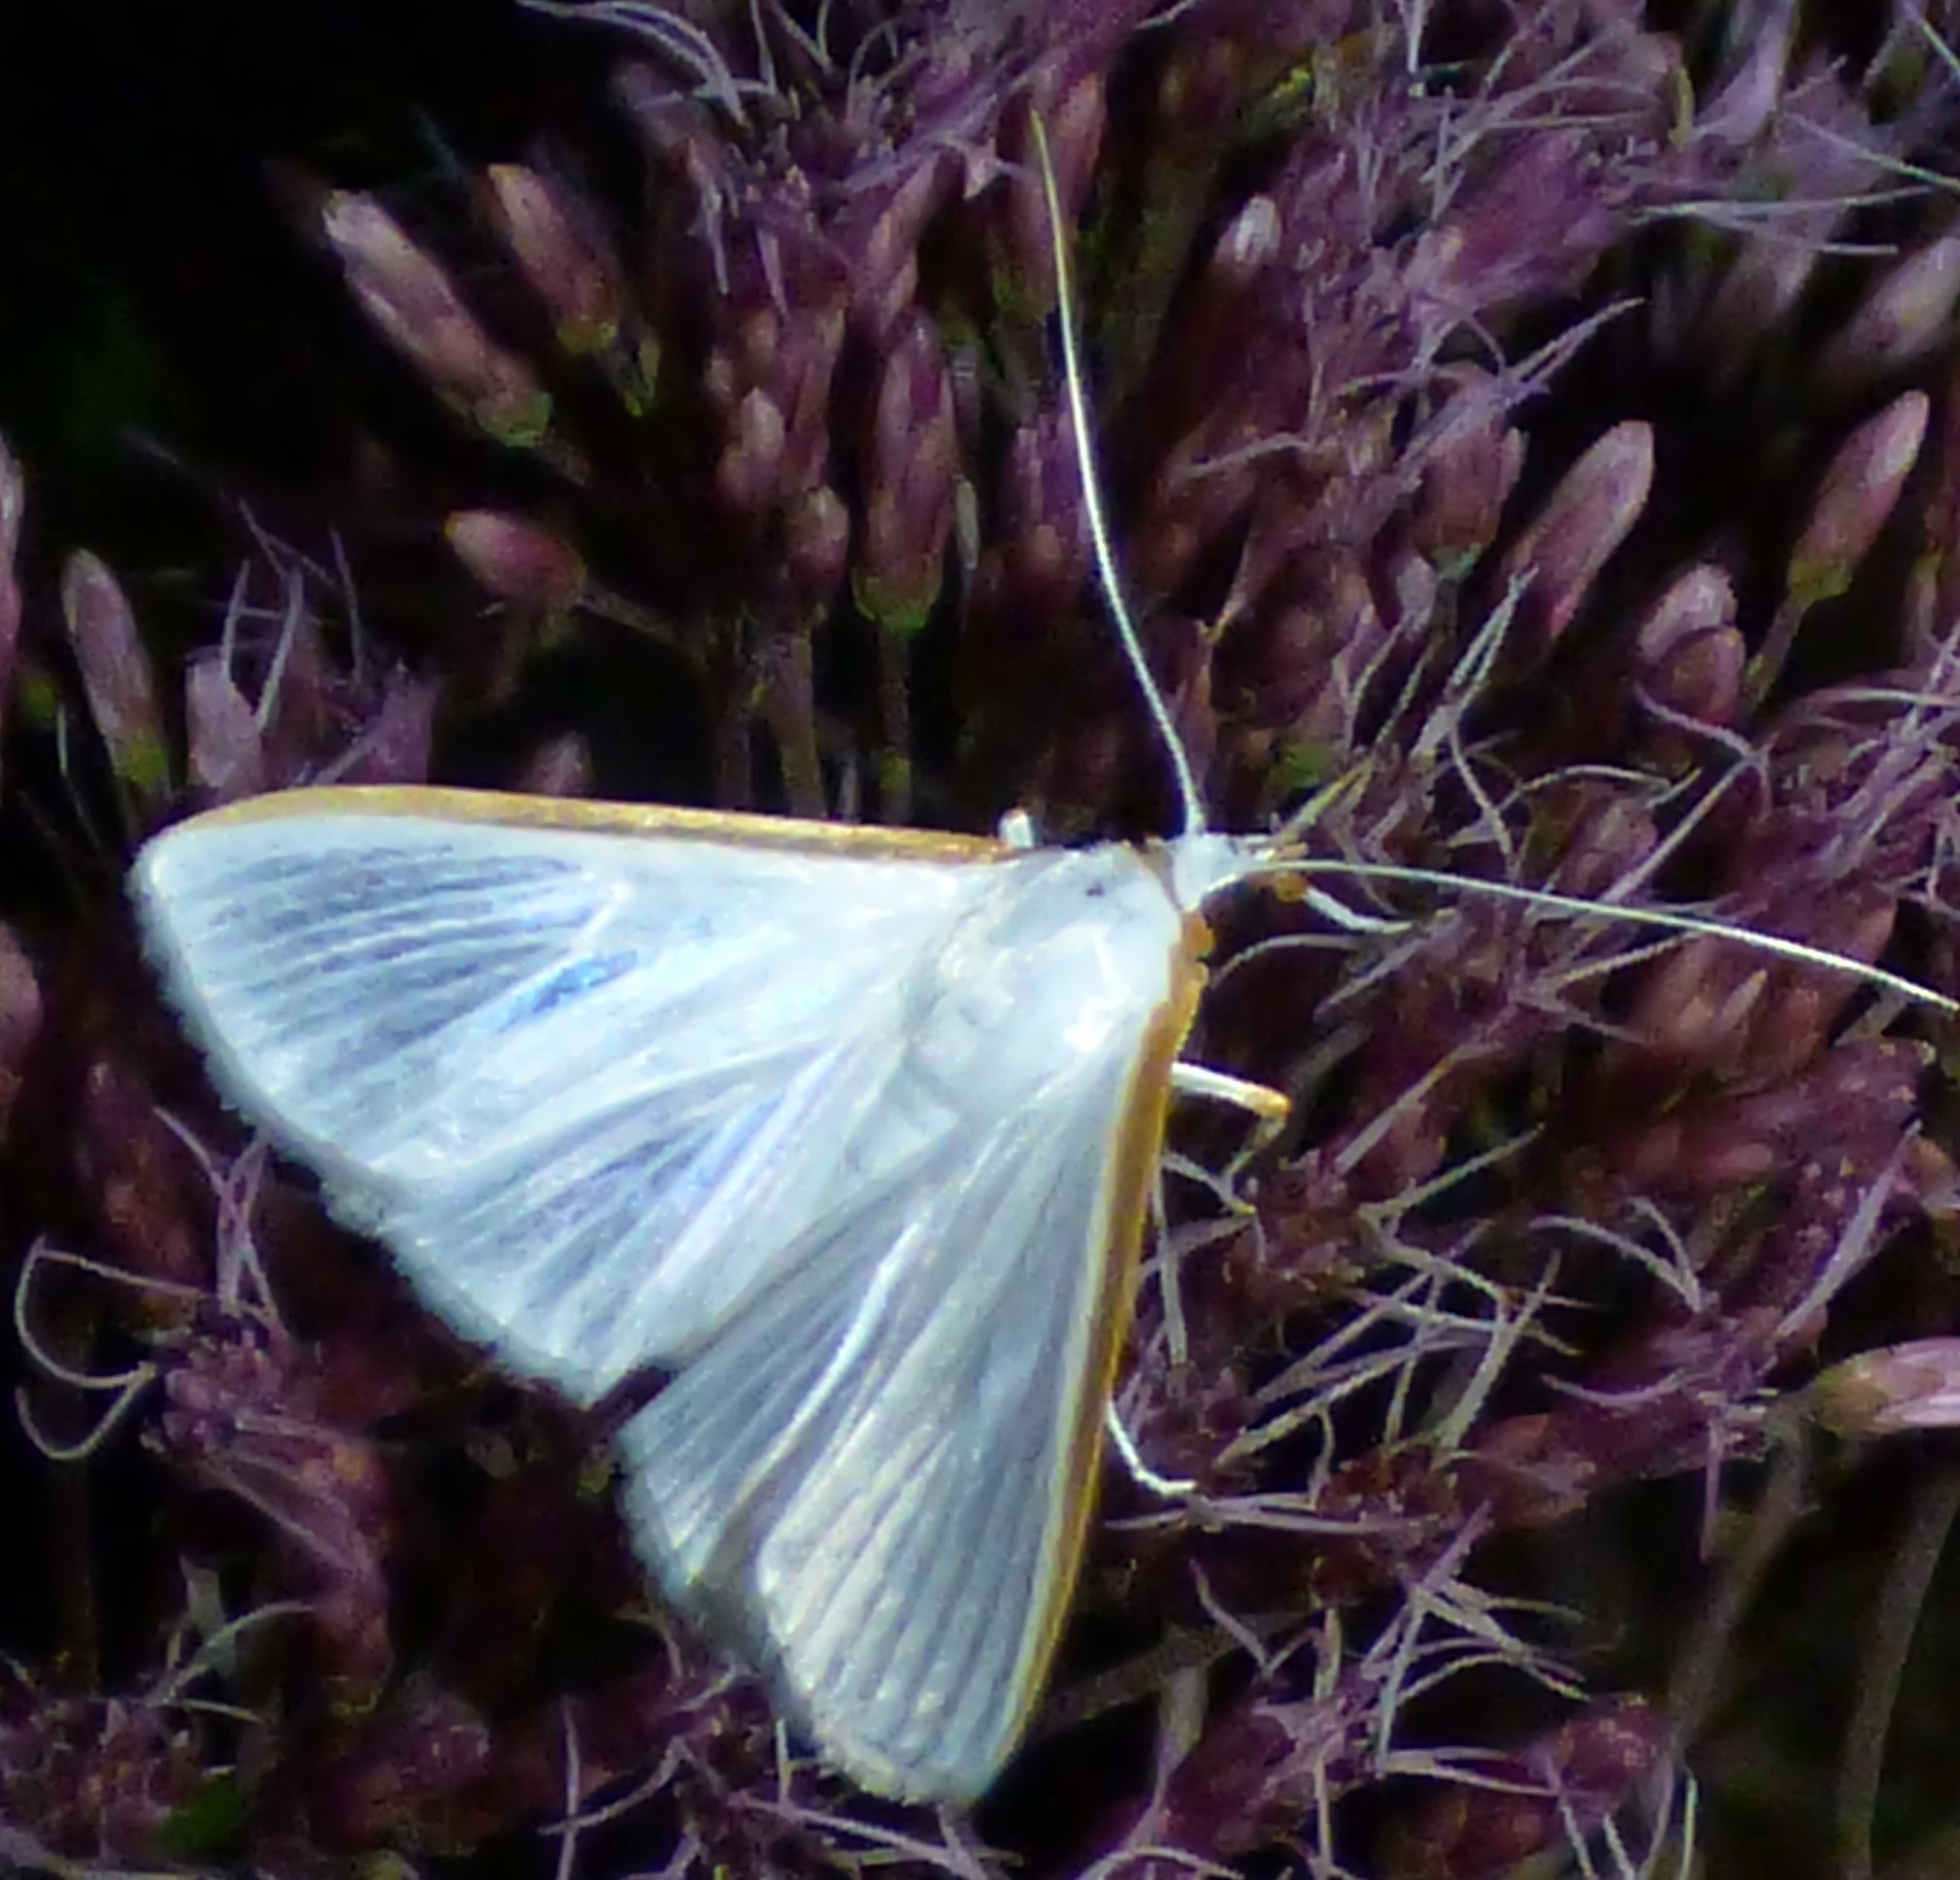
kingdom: Animalia
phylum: Arthropoda
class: Insecta
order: Lepidoptera
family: Crambidae
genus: Diaphania
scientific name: Diaphania costata
